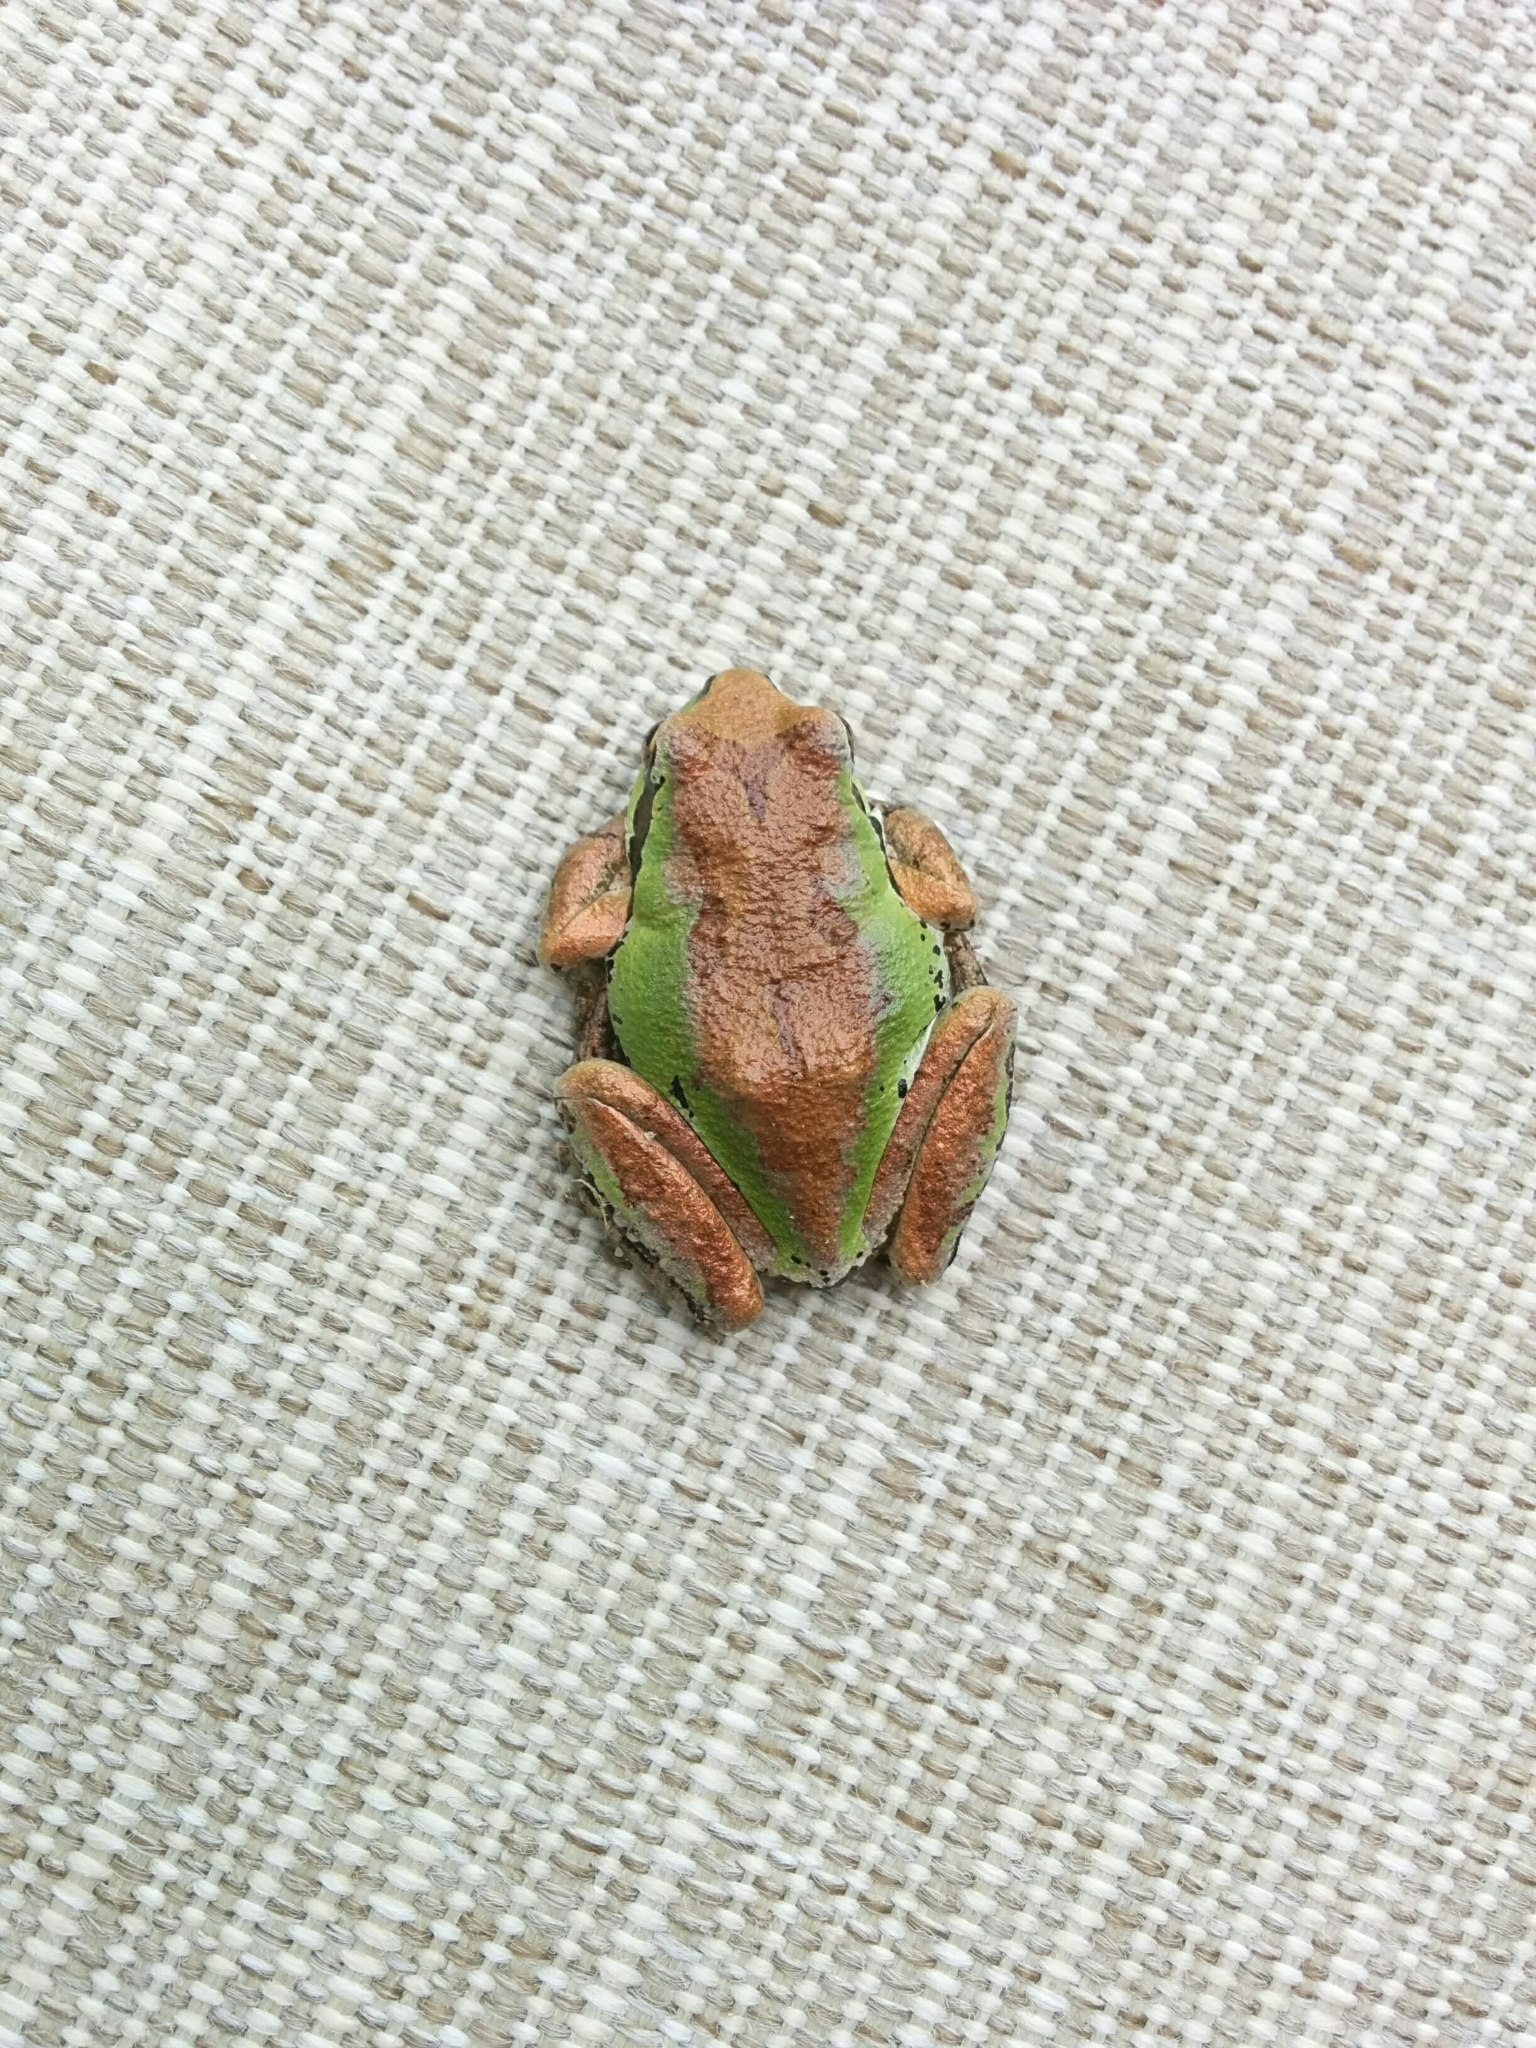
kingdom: Animalia
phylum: Chordata
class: Amphibia
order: Anura
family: Hylidae
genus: Pseudacris
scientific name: Pseudacris regilla
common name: Pacific chorus frog
